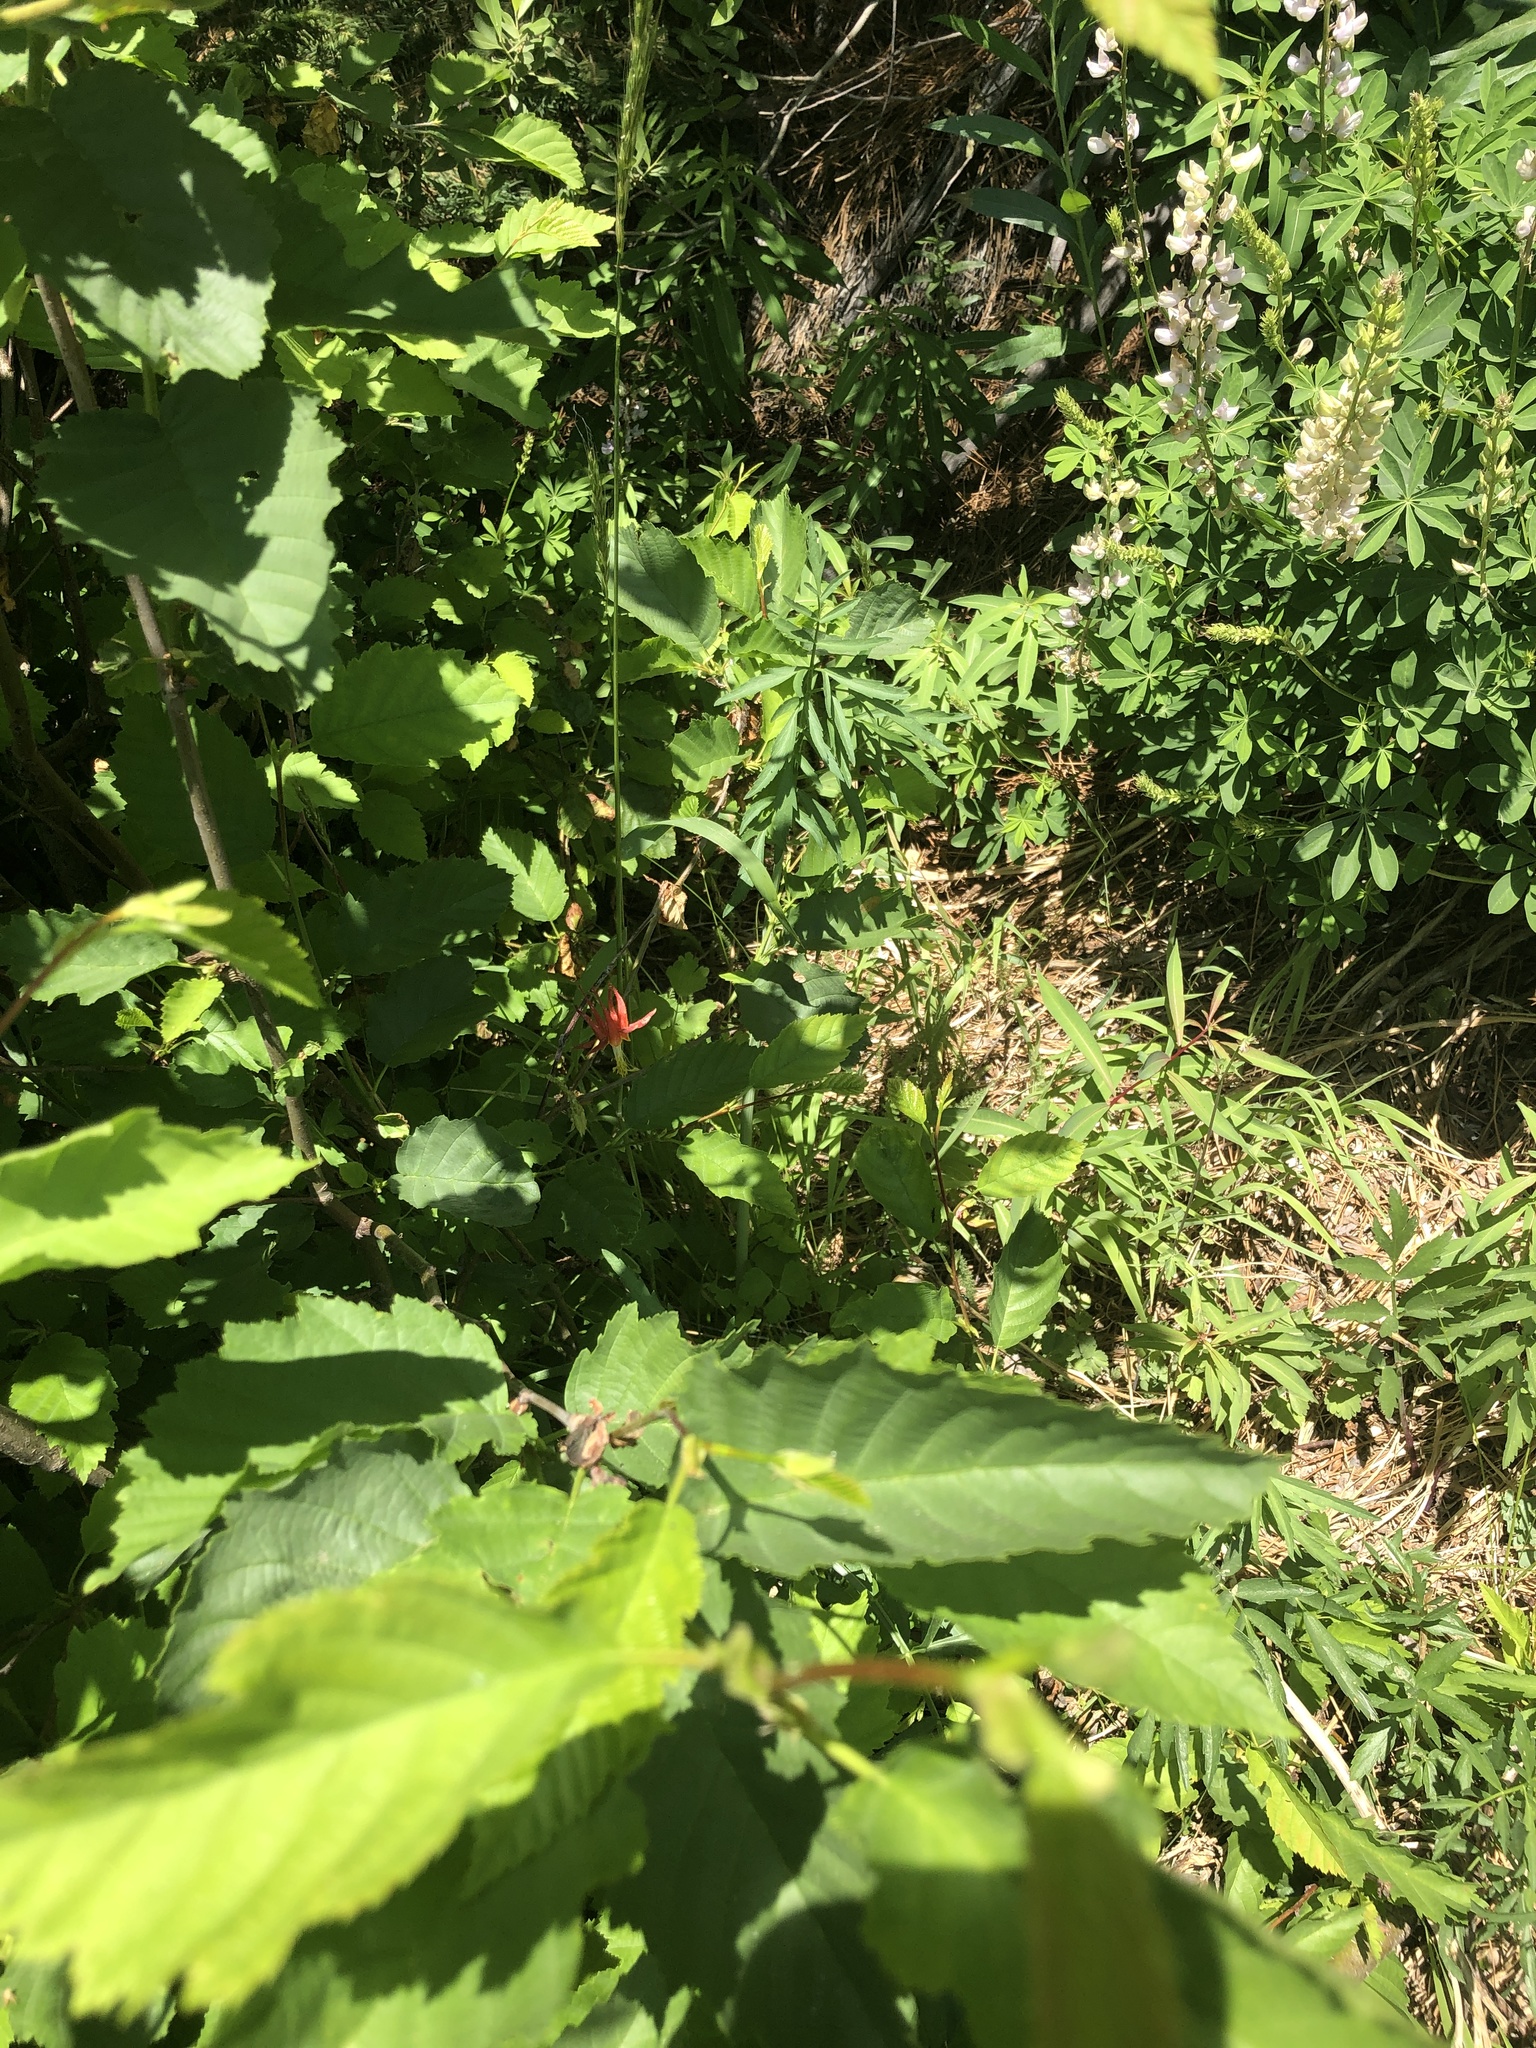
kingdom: Plantae
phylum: Tracheophyta
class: Magnoliopsida
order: Ranunculales
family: Ranunculaceae
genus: Aquilegia
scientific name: Aquilegia formosa
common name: Sitka columbine
